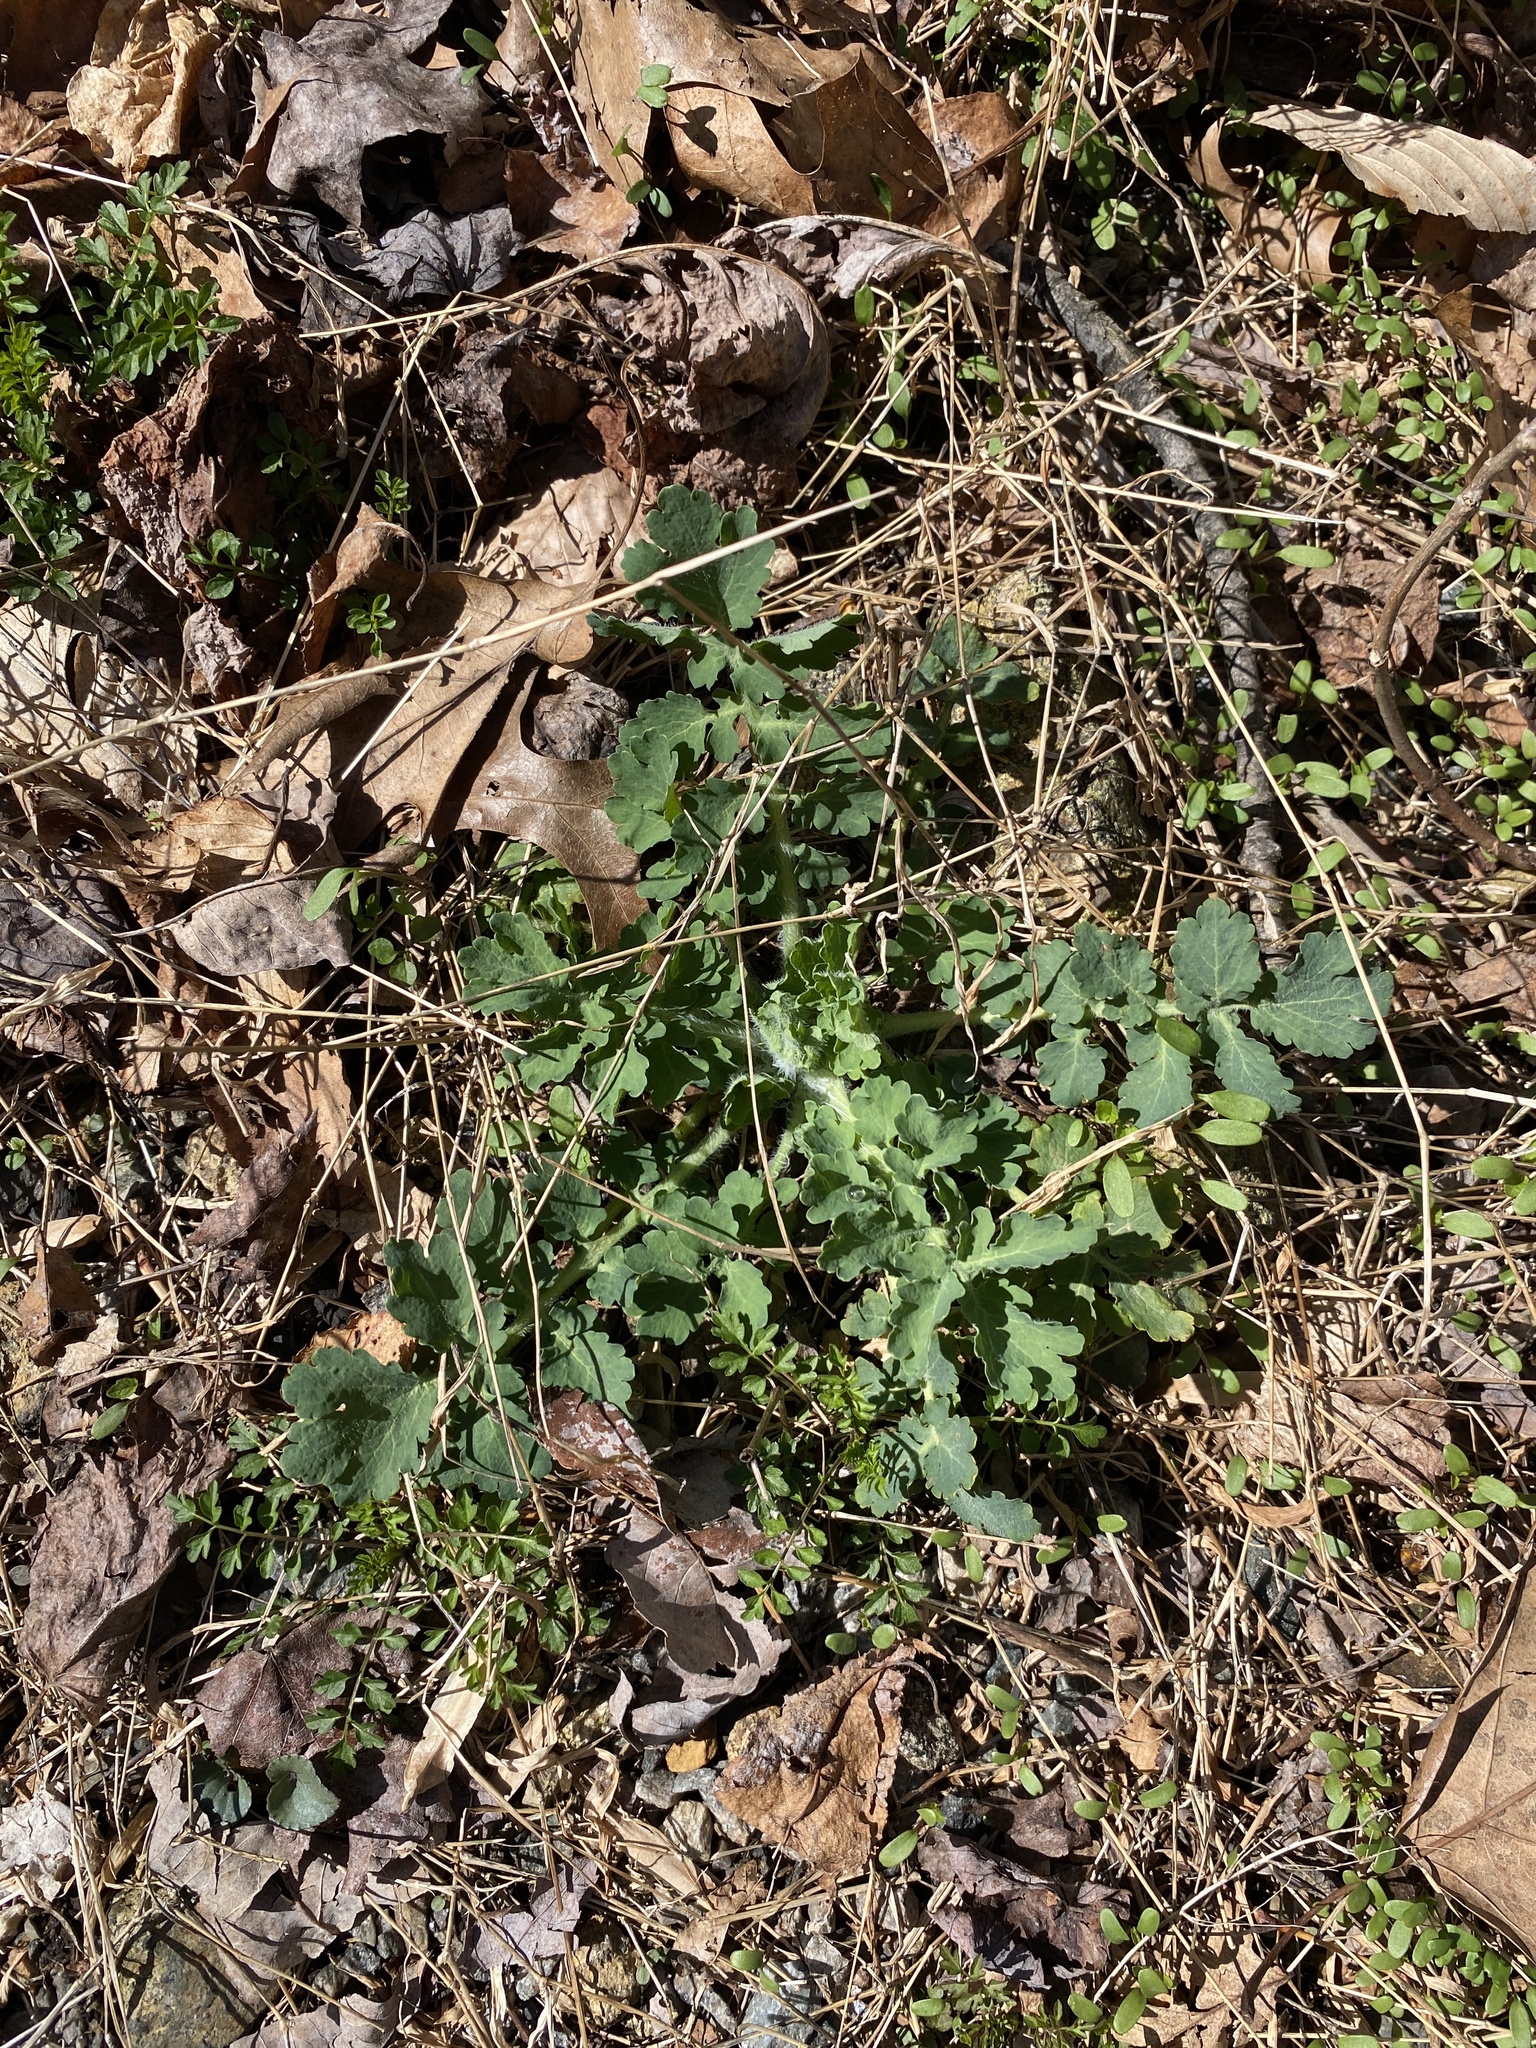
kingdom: Plantae
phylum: Tracheophyta
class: Magnoliopsida
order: Ranunculales
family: Papaveraceae
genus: Chelidonium
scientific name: Chelidonium majus
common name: Greater celandine
